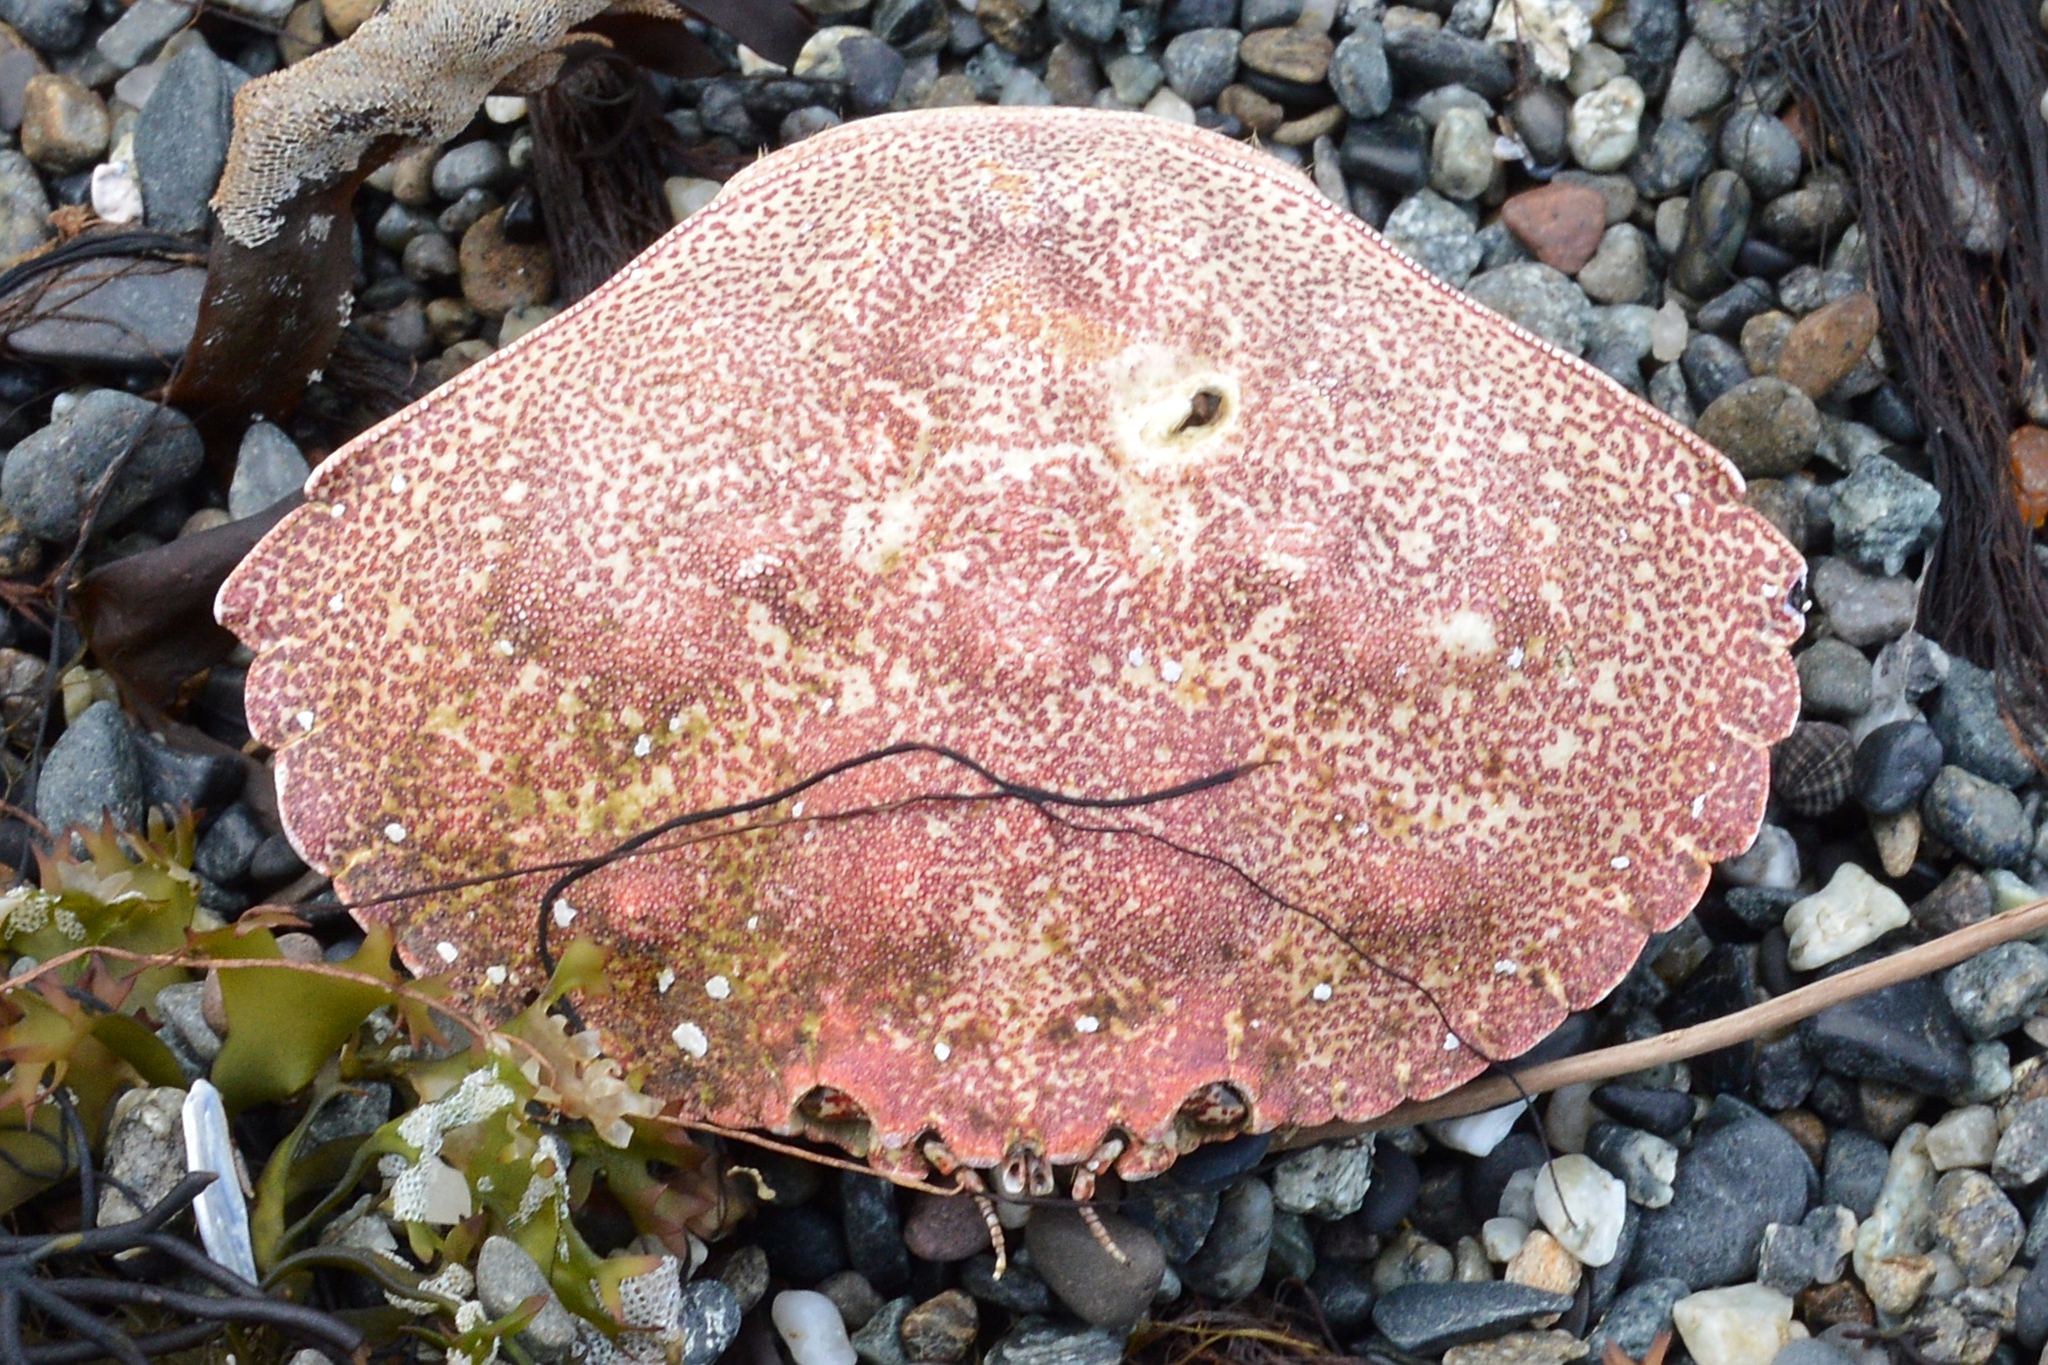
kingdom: Animalia
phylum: Arthropoda
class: Malacostraca
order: Decapoda
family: Cancridae
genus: Cancer
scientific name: Cancer irroratus
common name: Atlantic rock crab
